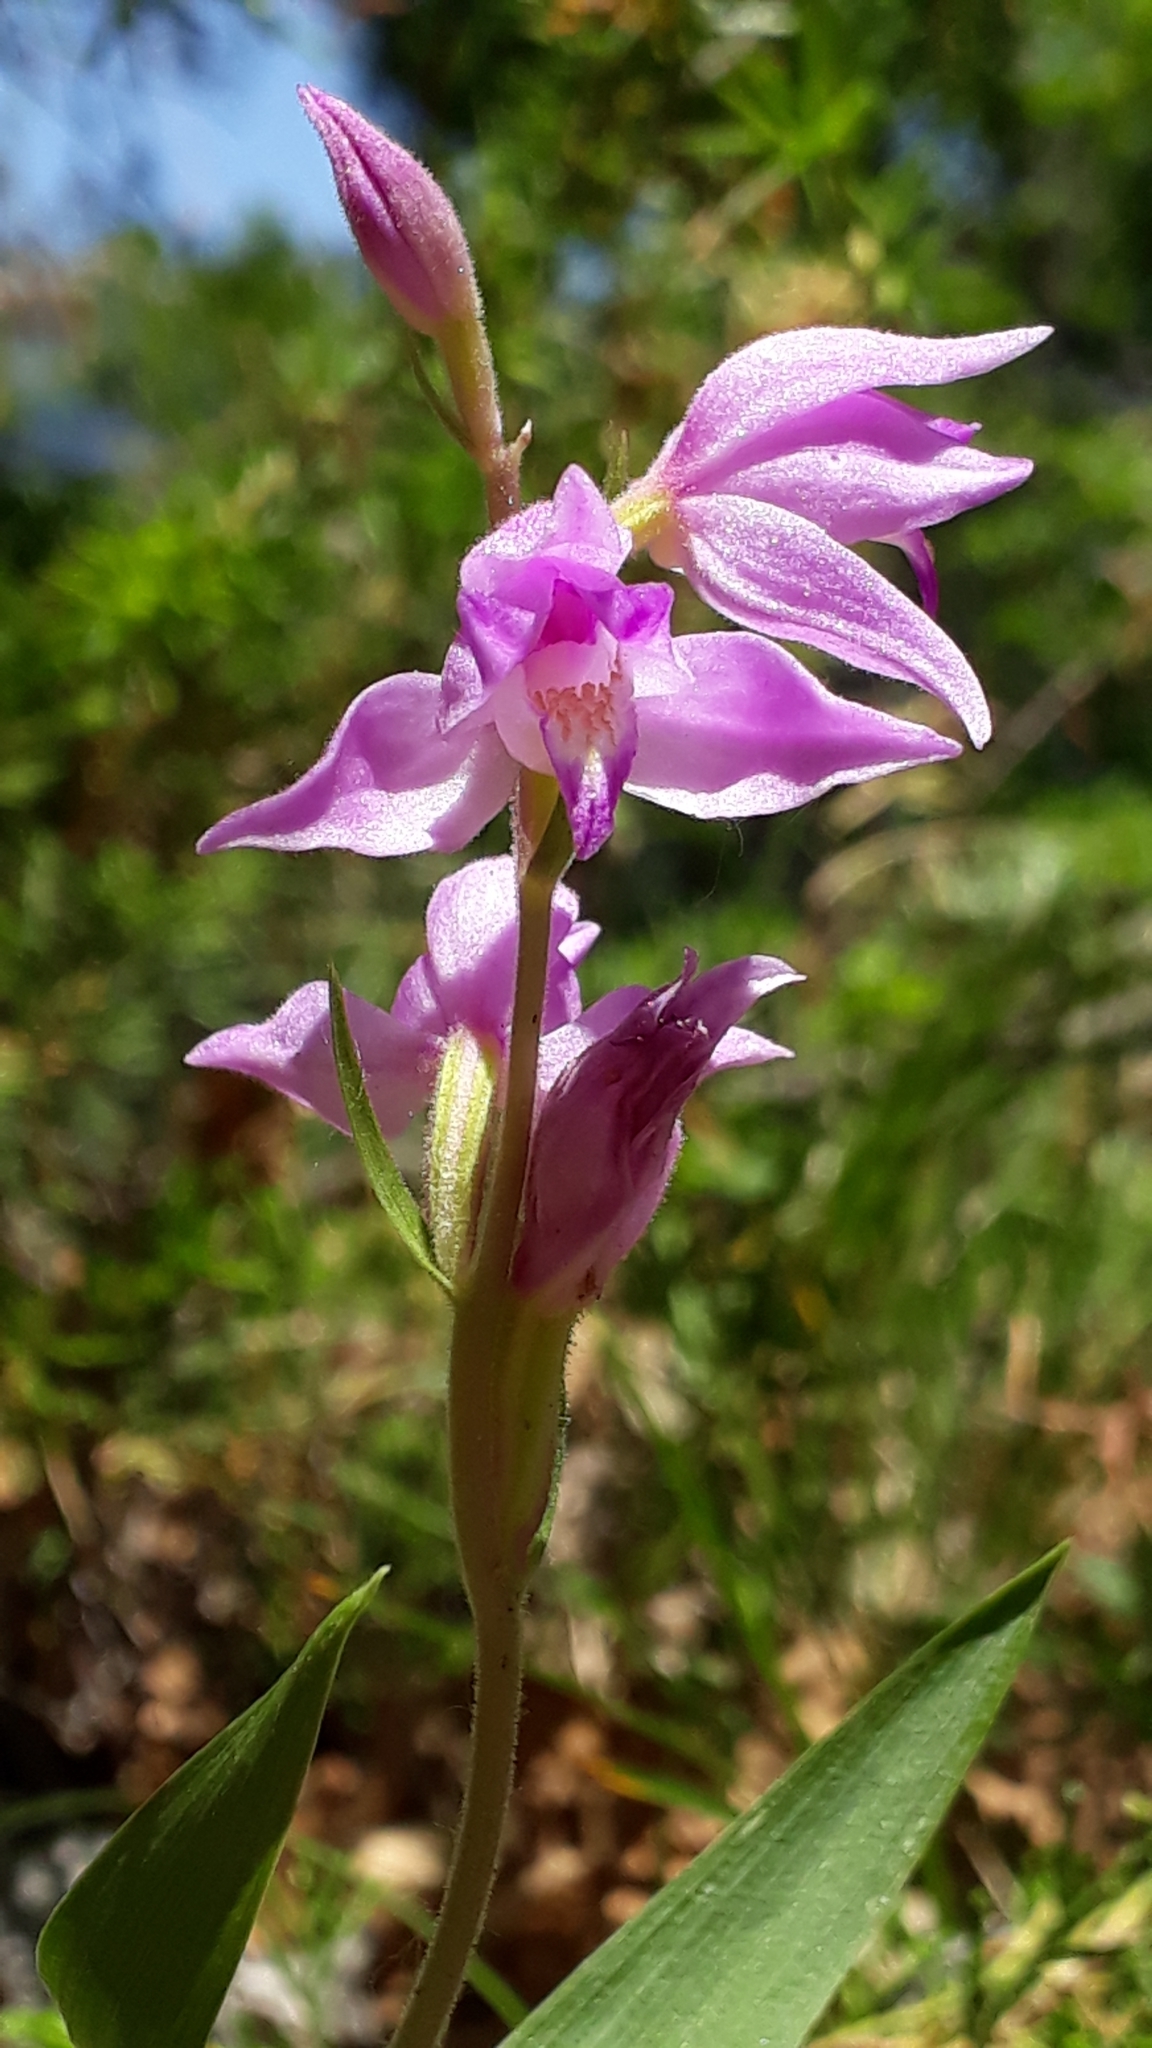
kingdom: Plantae
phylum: Tracheophyta
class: Liliopsida
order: Asparagales
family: Orchidaceae
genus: Cephalanthera
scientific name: Cephalanthera rubra
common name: Red helleborine
